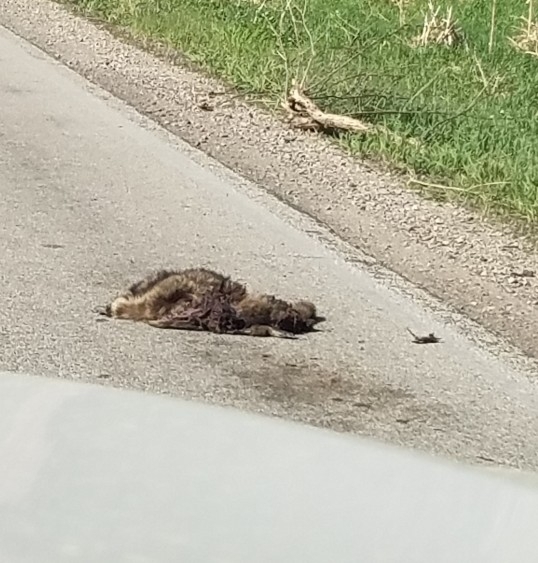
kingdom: Animalia
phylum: Chordata
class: Mammalia
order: Carnivora
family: Procyonidae
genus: Procyon
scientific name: Procyon lotor
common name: Raccoon
